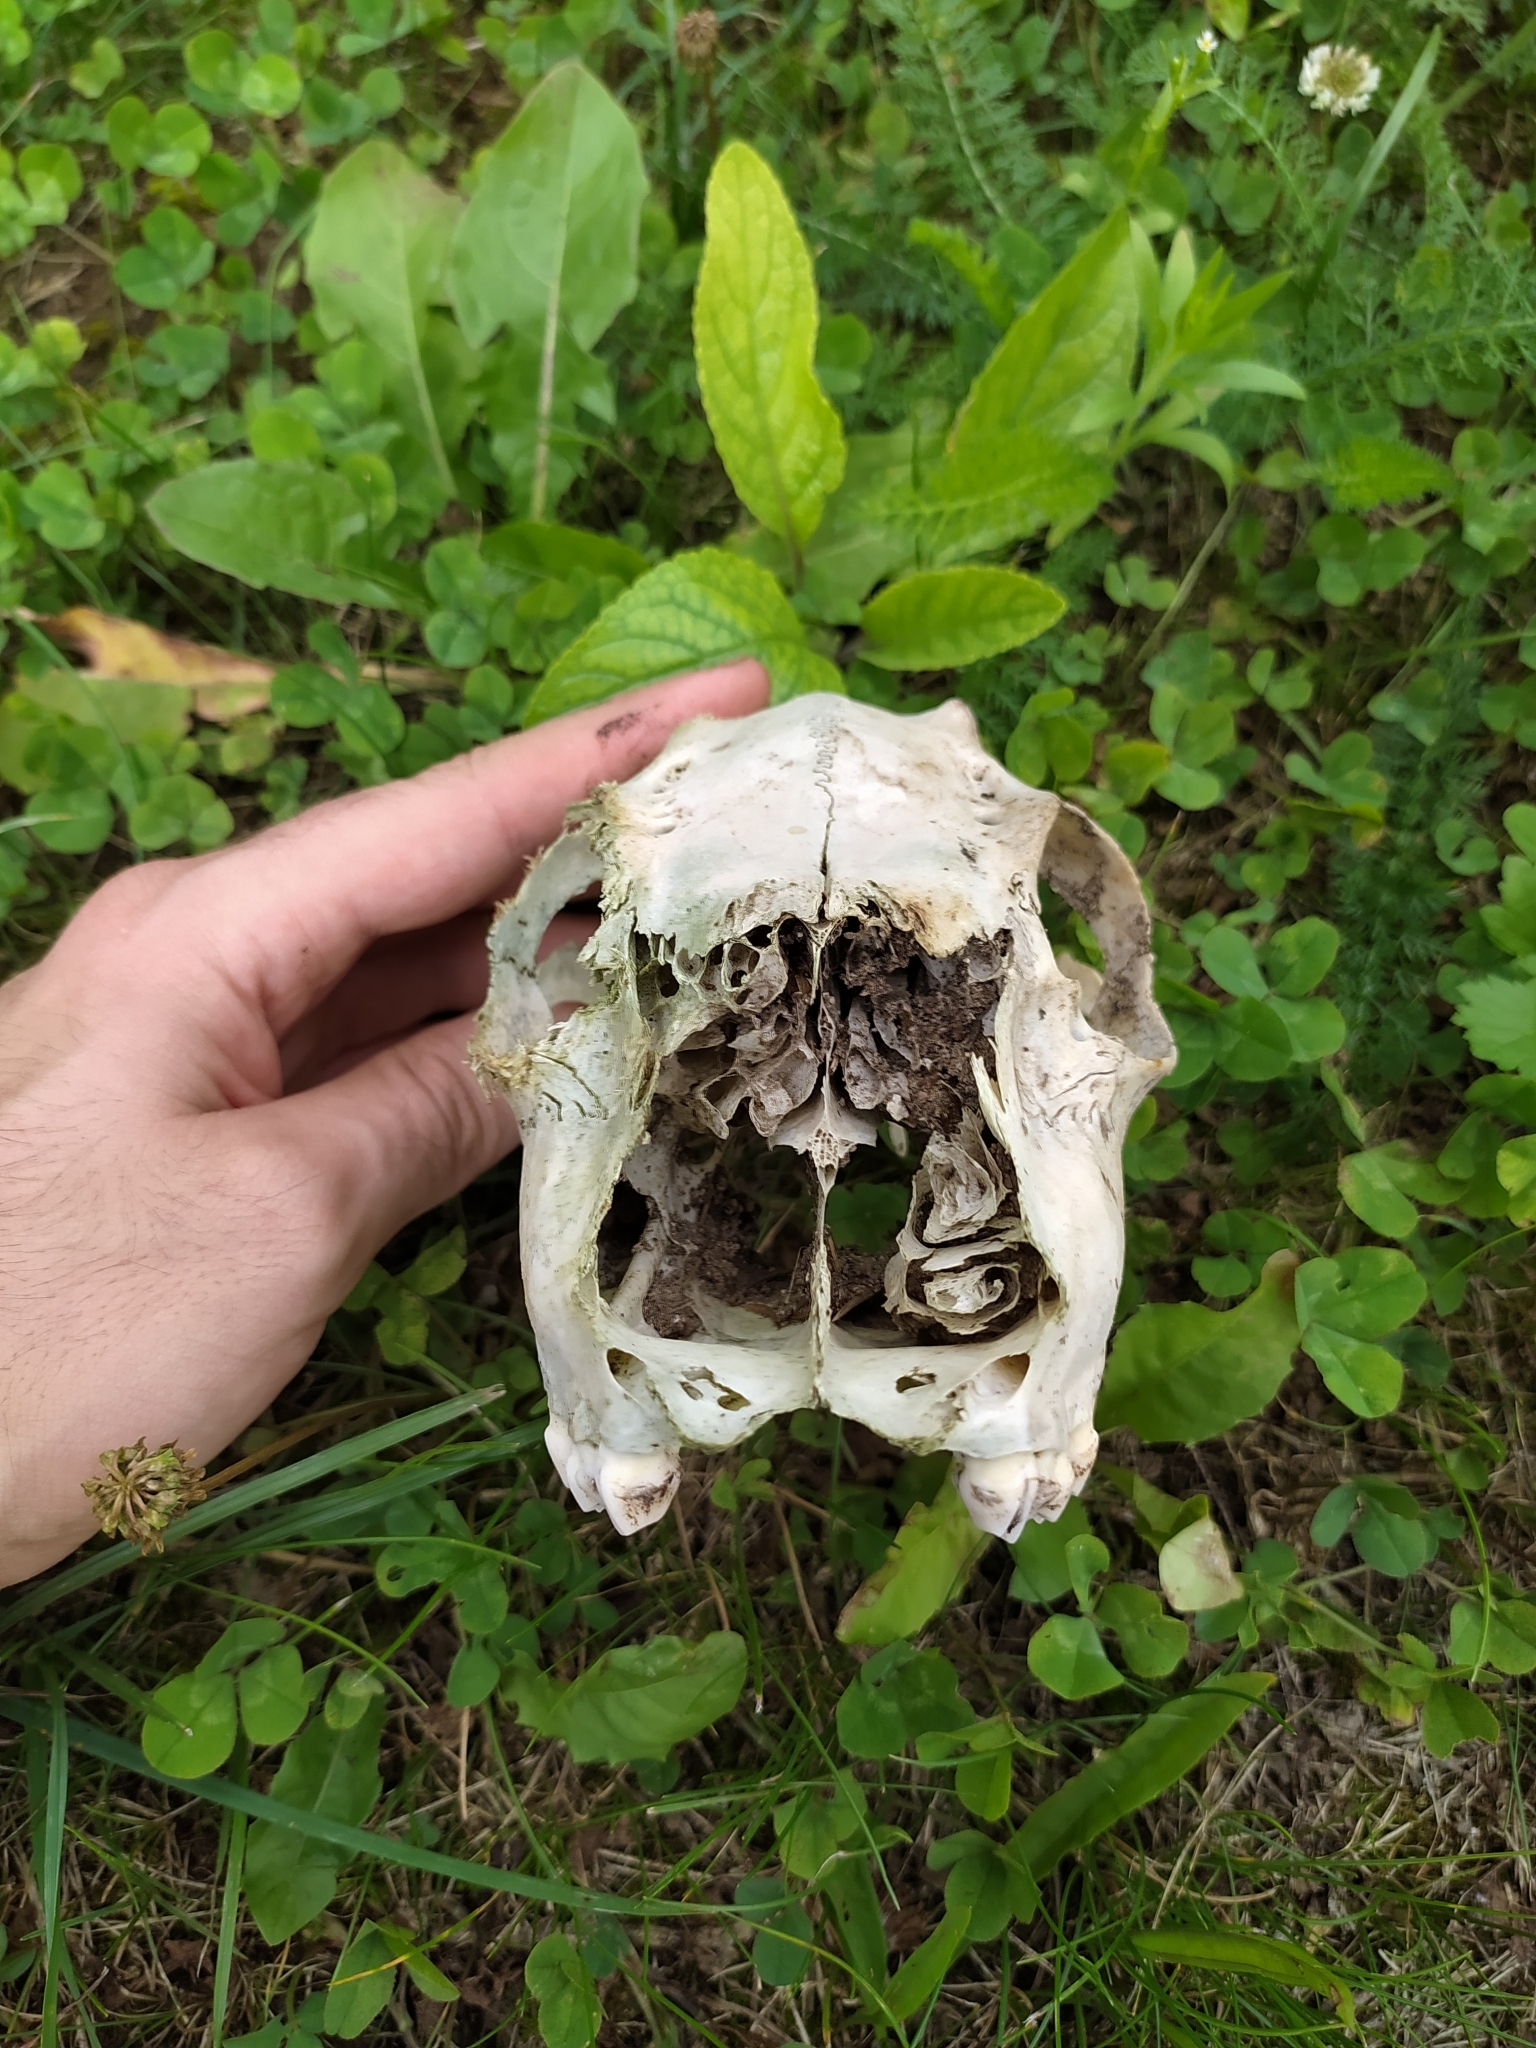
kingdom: Animalia
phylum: Chordata
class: Mammalia
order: Artiodactyla
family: Cervidae
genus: Capreolus
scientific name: Capreolus capreolus
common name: Western roe deer
